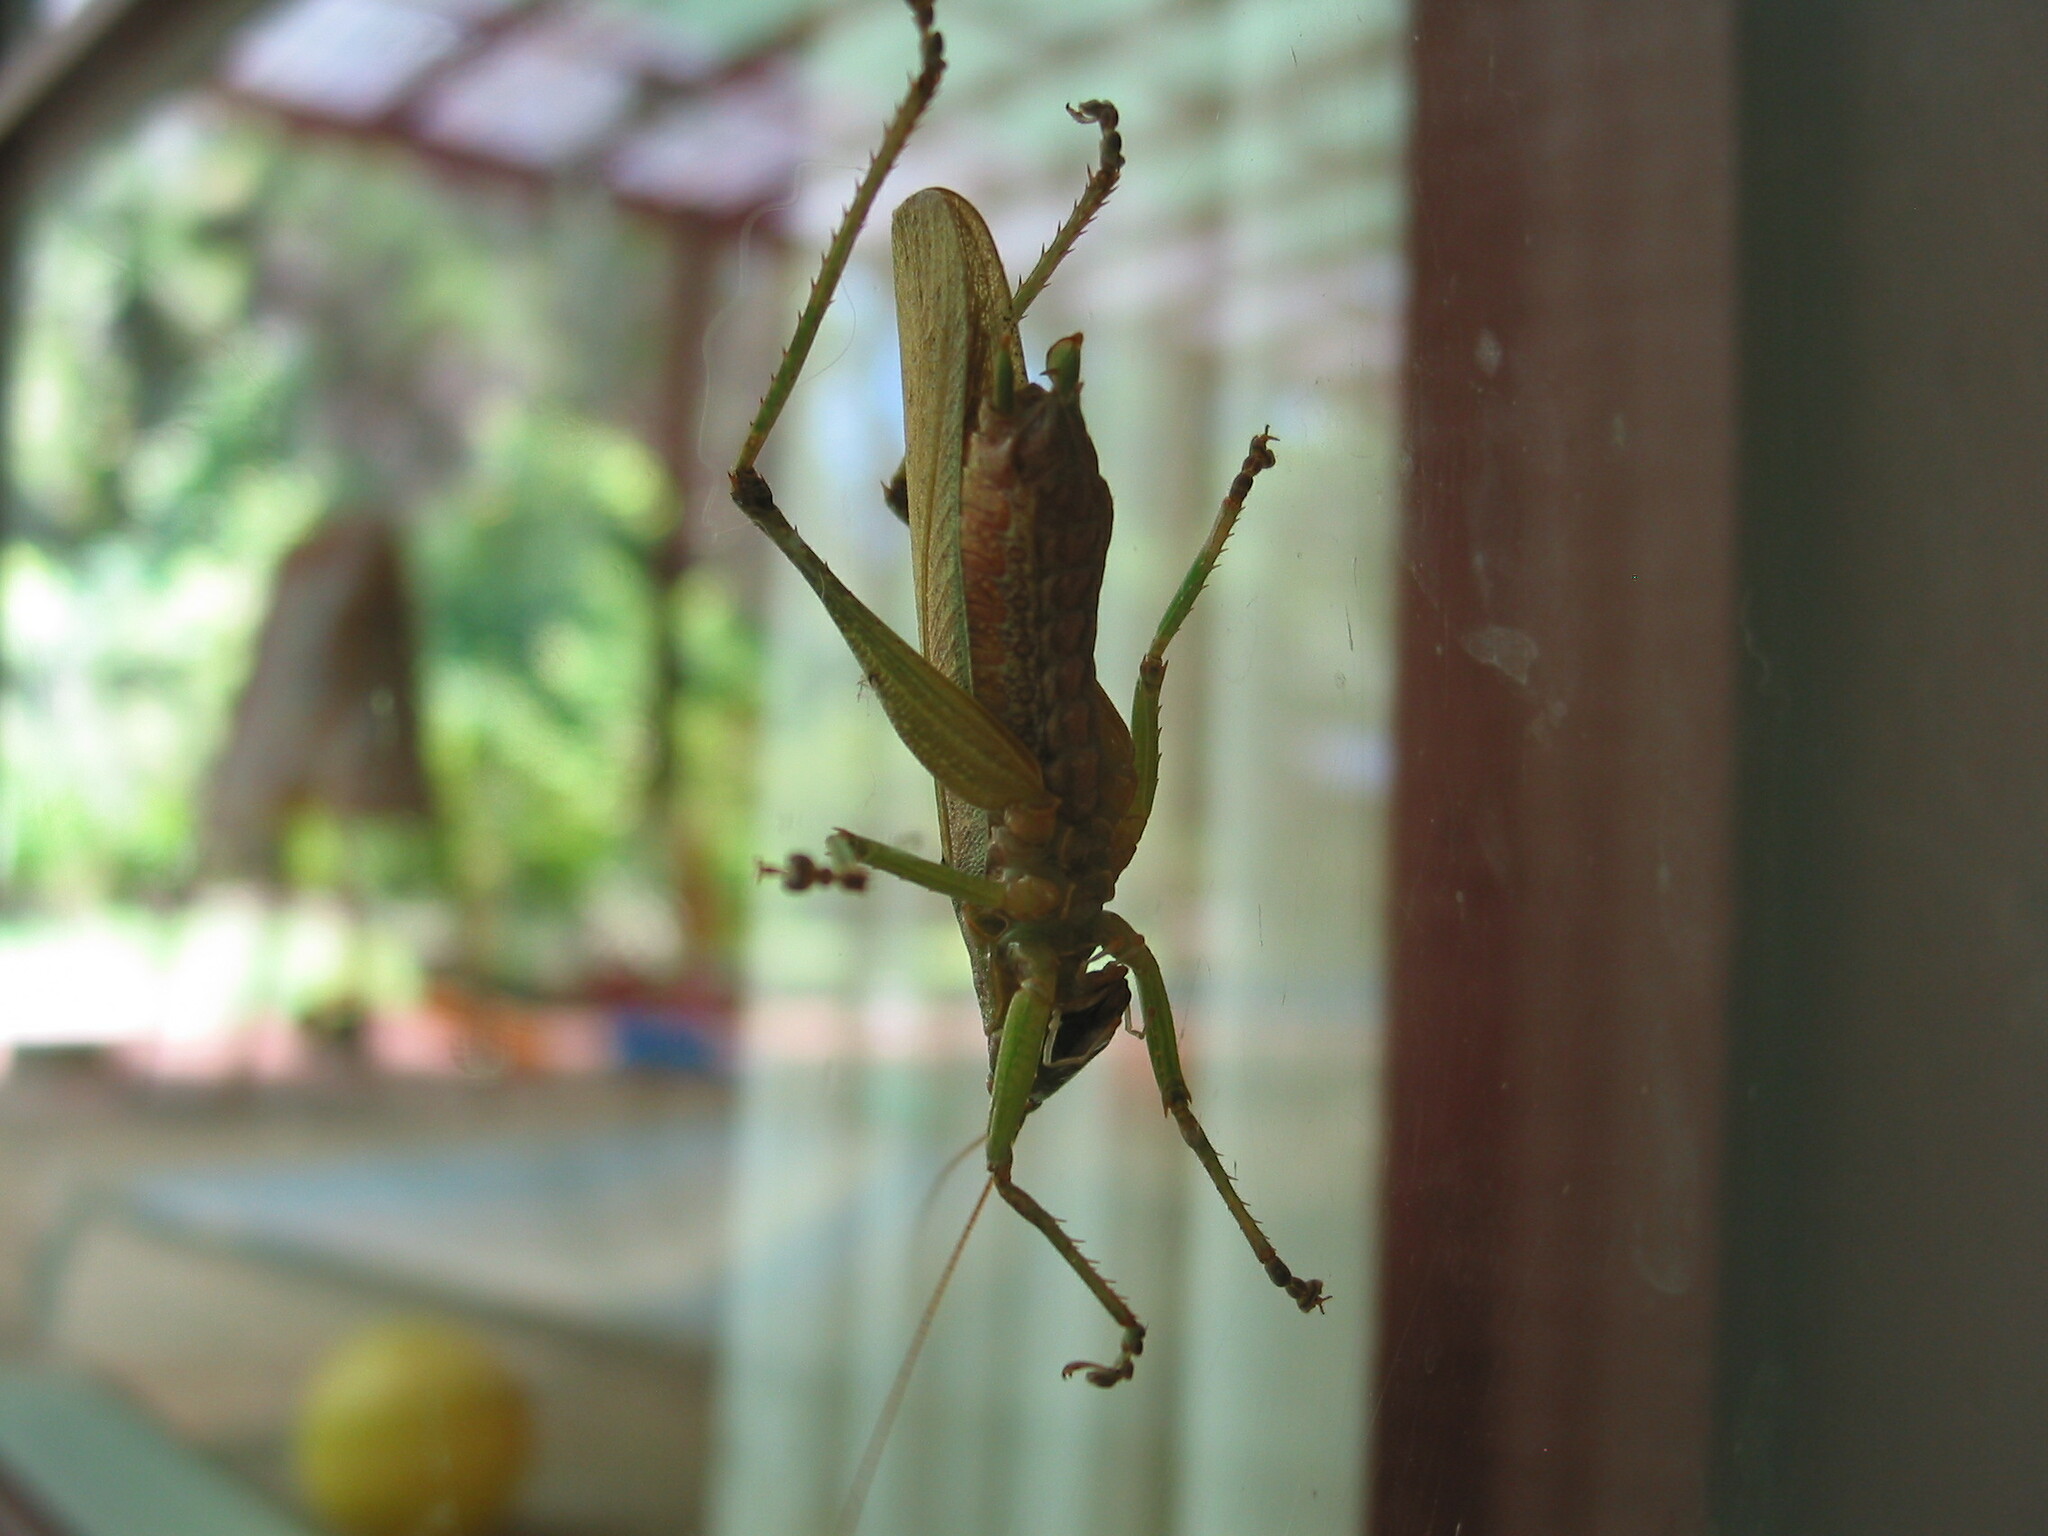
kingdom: Animalia
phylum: Arthropoda
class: Insecta
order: Orthoptera
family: Tettigoniidae
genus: Austrosalomona
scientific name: Austrosalomona falcata
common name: Olive-green coastal katydid
